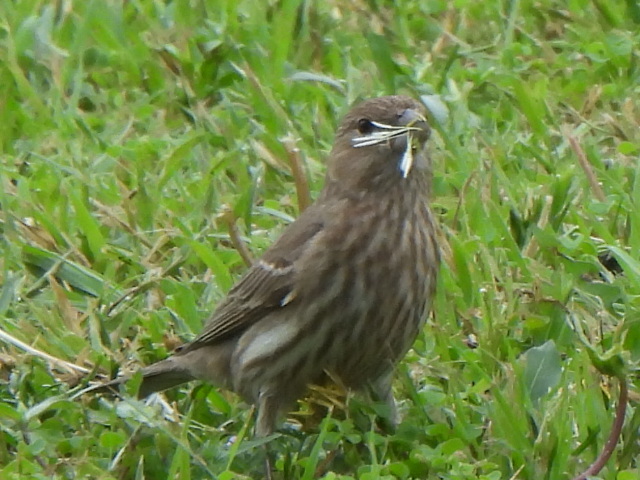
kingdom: Animalia
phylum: Chordata
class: Aves
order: Passeriformes
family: Fringillidae
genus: Haemorhous
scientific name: Haemorhous mexicanus
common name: House finch
